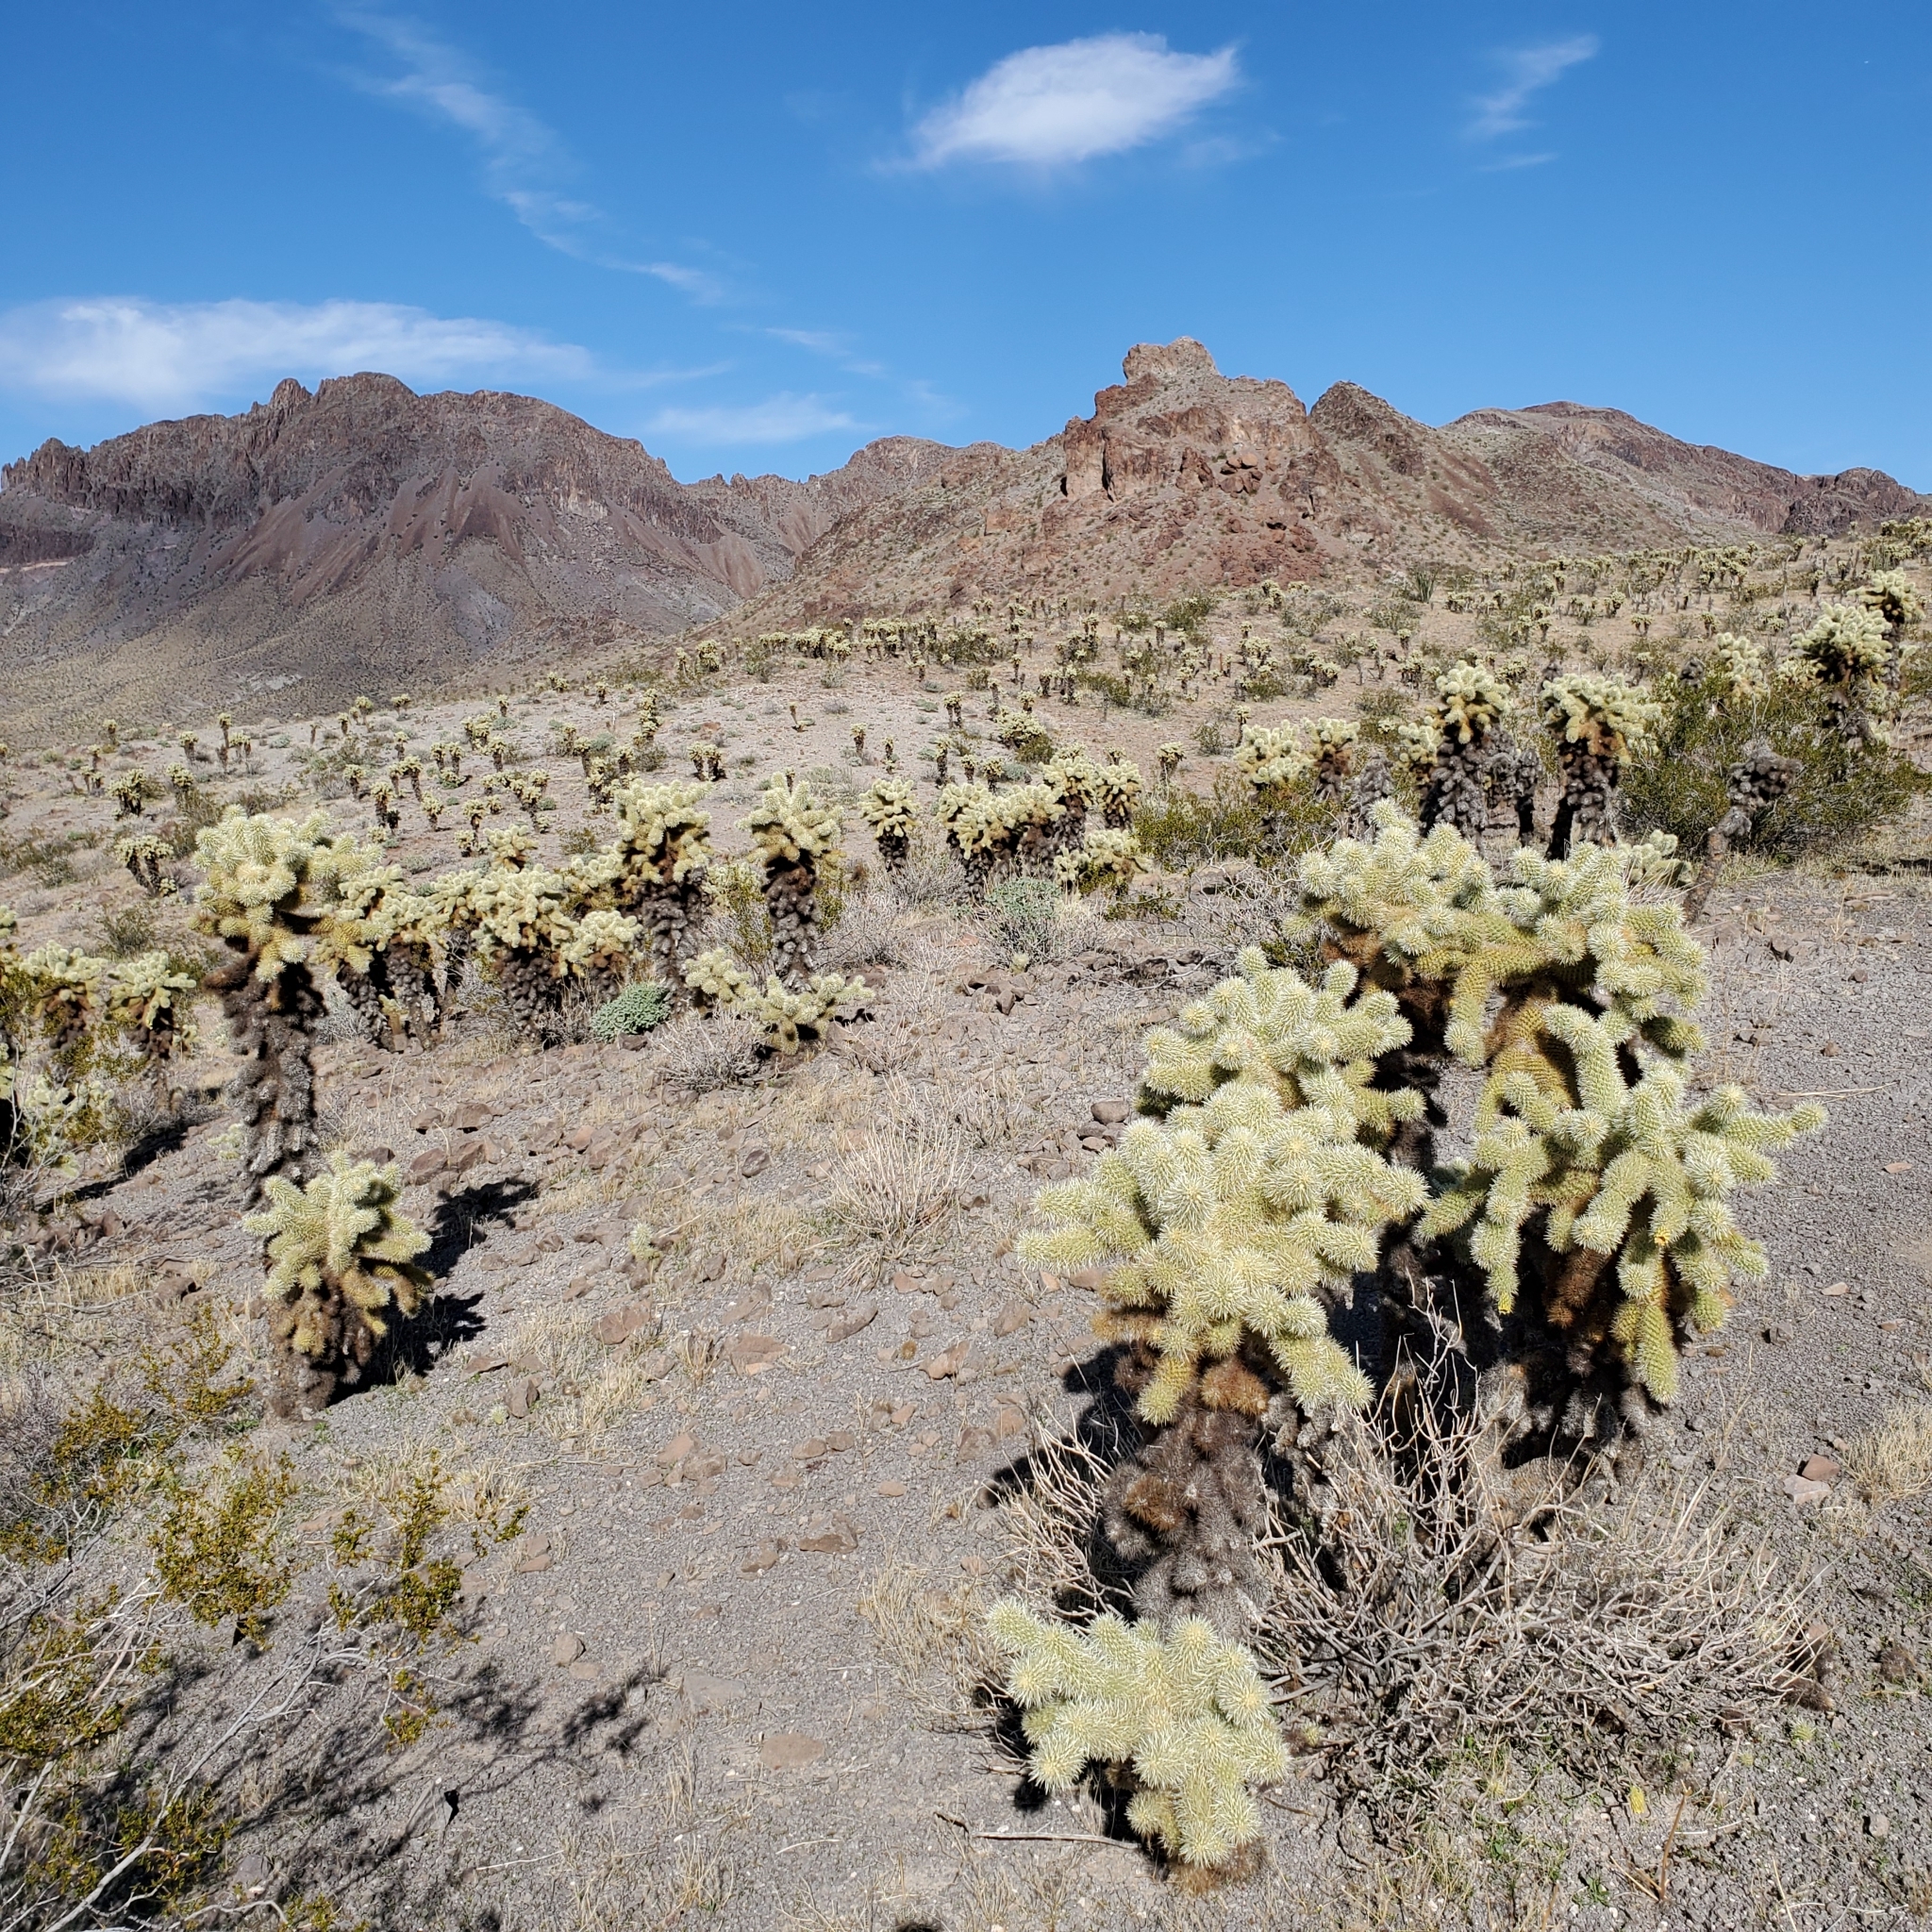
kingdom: Plantae
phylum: Tracheophyta
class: Magnoliopsida
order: Caryophyllales
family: Cactaceae
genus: Cylindropuntia
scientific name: Cylindropuntia fosbergii
